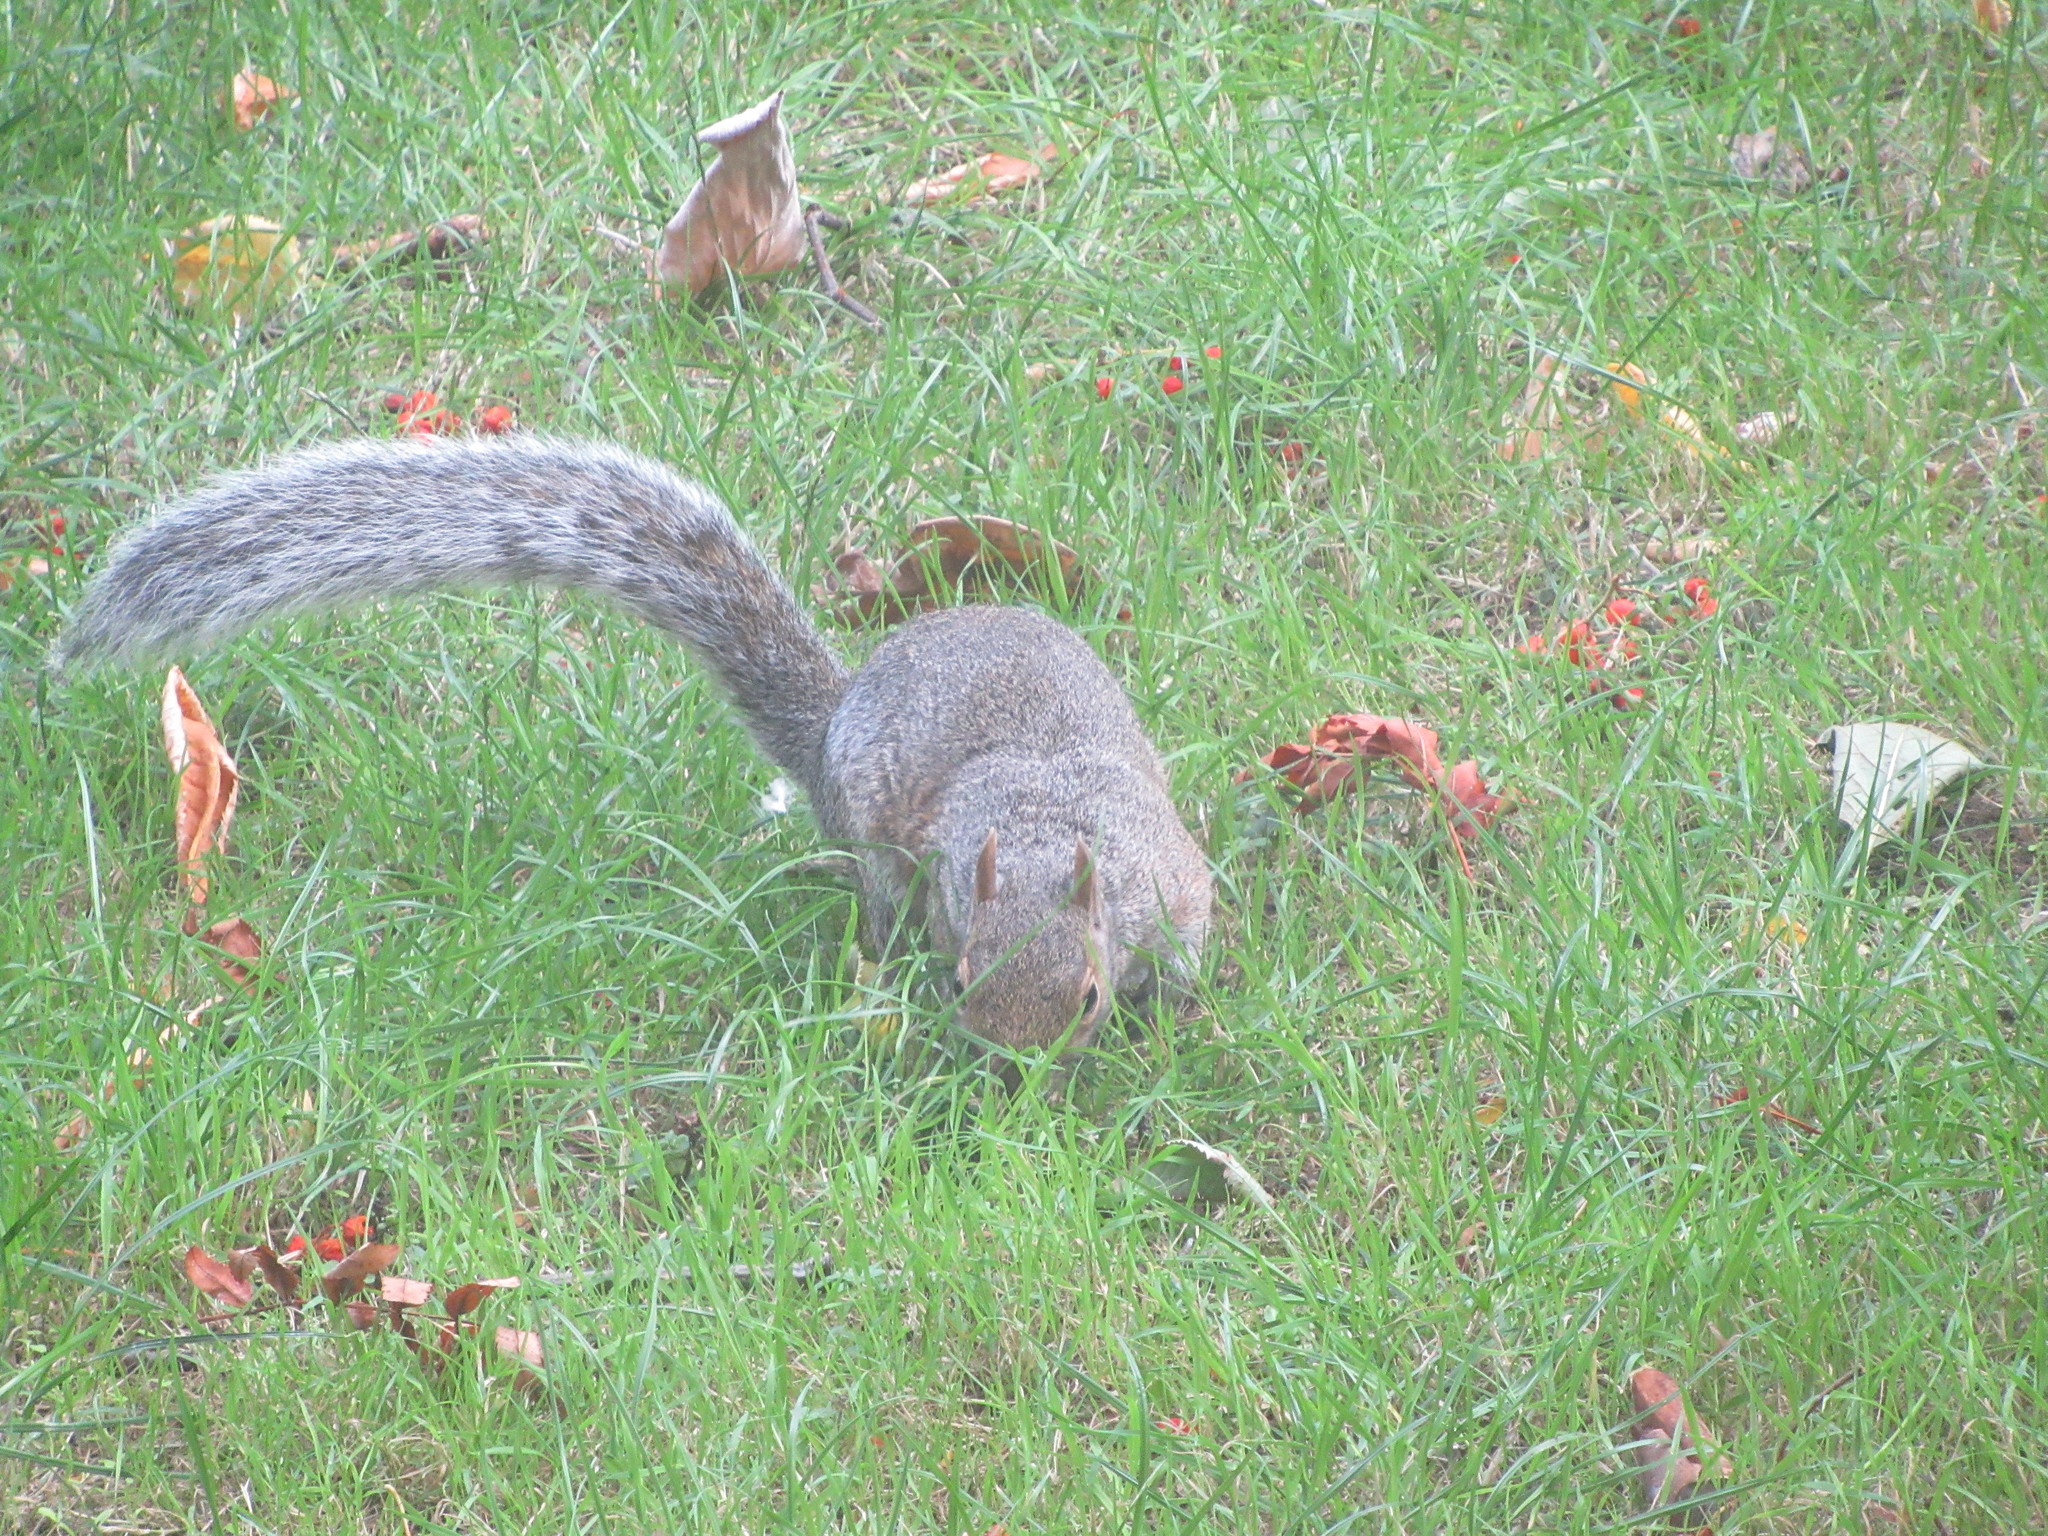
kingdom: Animalia
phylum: Chordata
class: Mammalia
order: Rodentia
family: Sciuridae
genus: Sciurus
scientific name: Sciurus carolinensis
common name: Eastern gray squirrel
